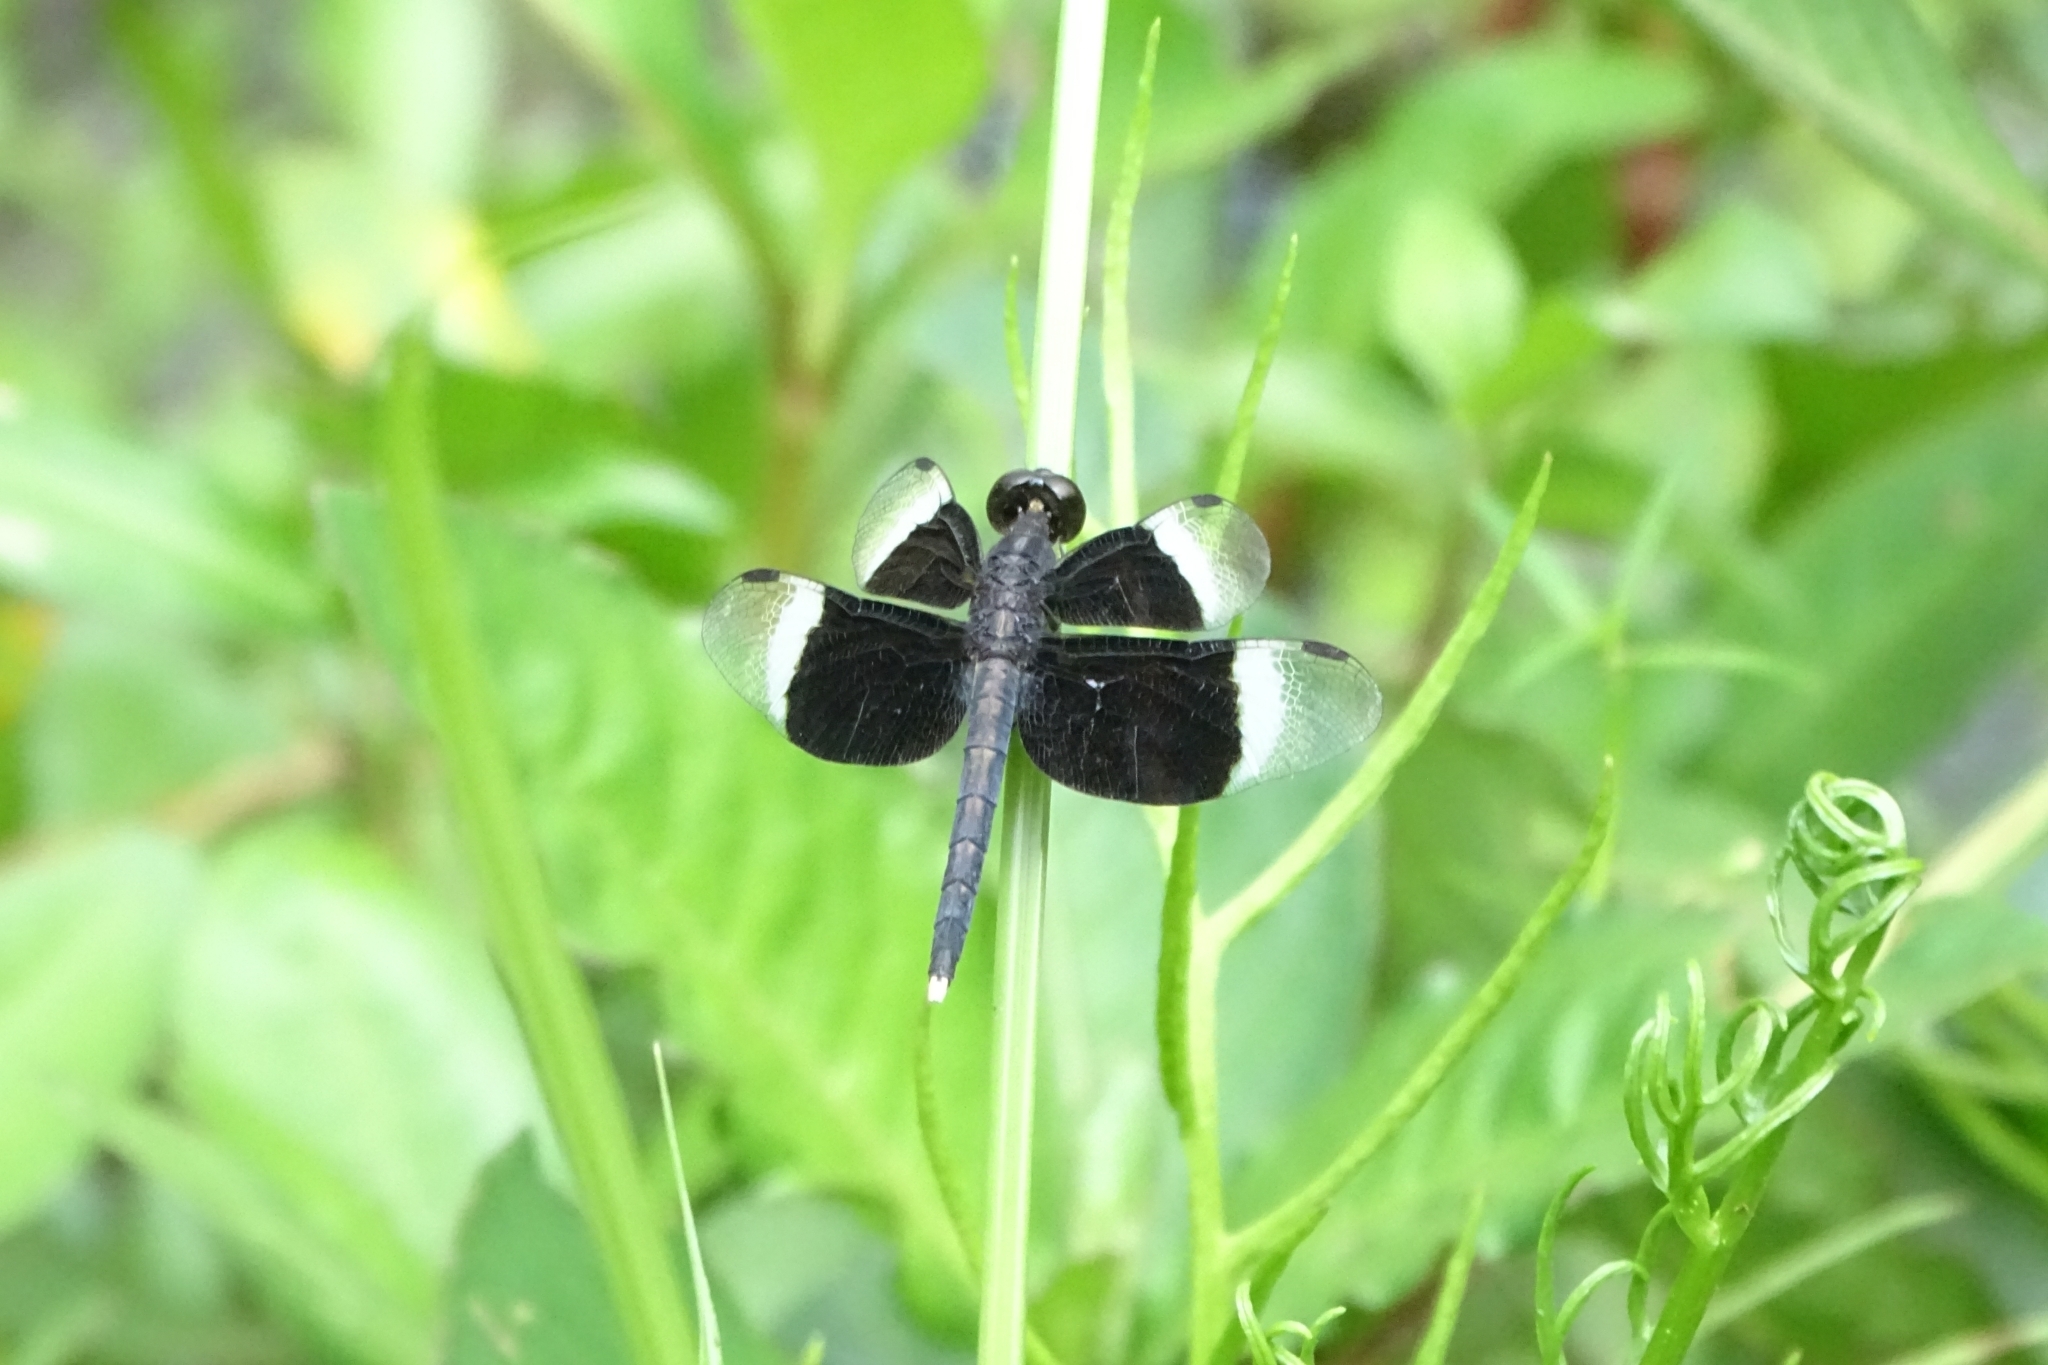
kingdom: Animalia
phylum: Arthropoda
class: Insecta
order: Odonata
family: Libellulidae
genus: Neurothemis
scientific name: Neurothemis tullia
